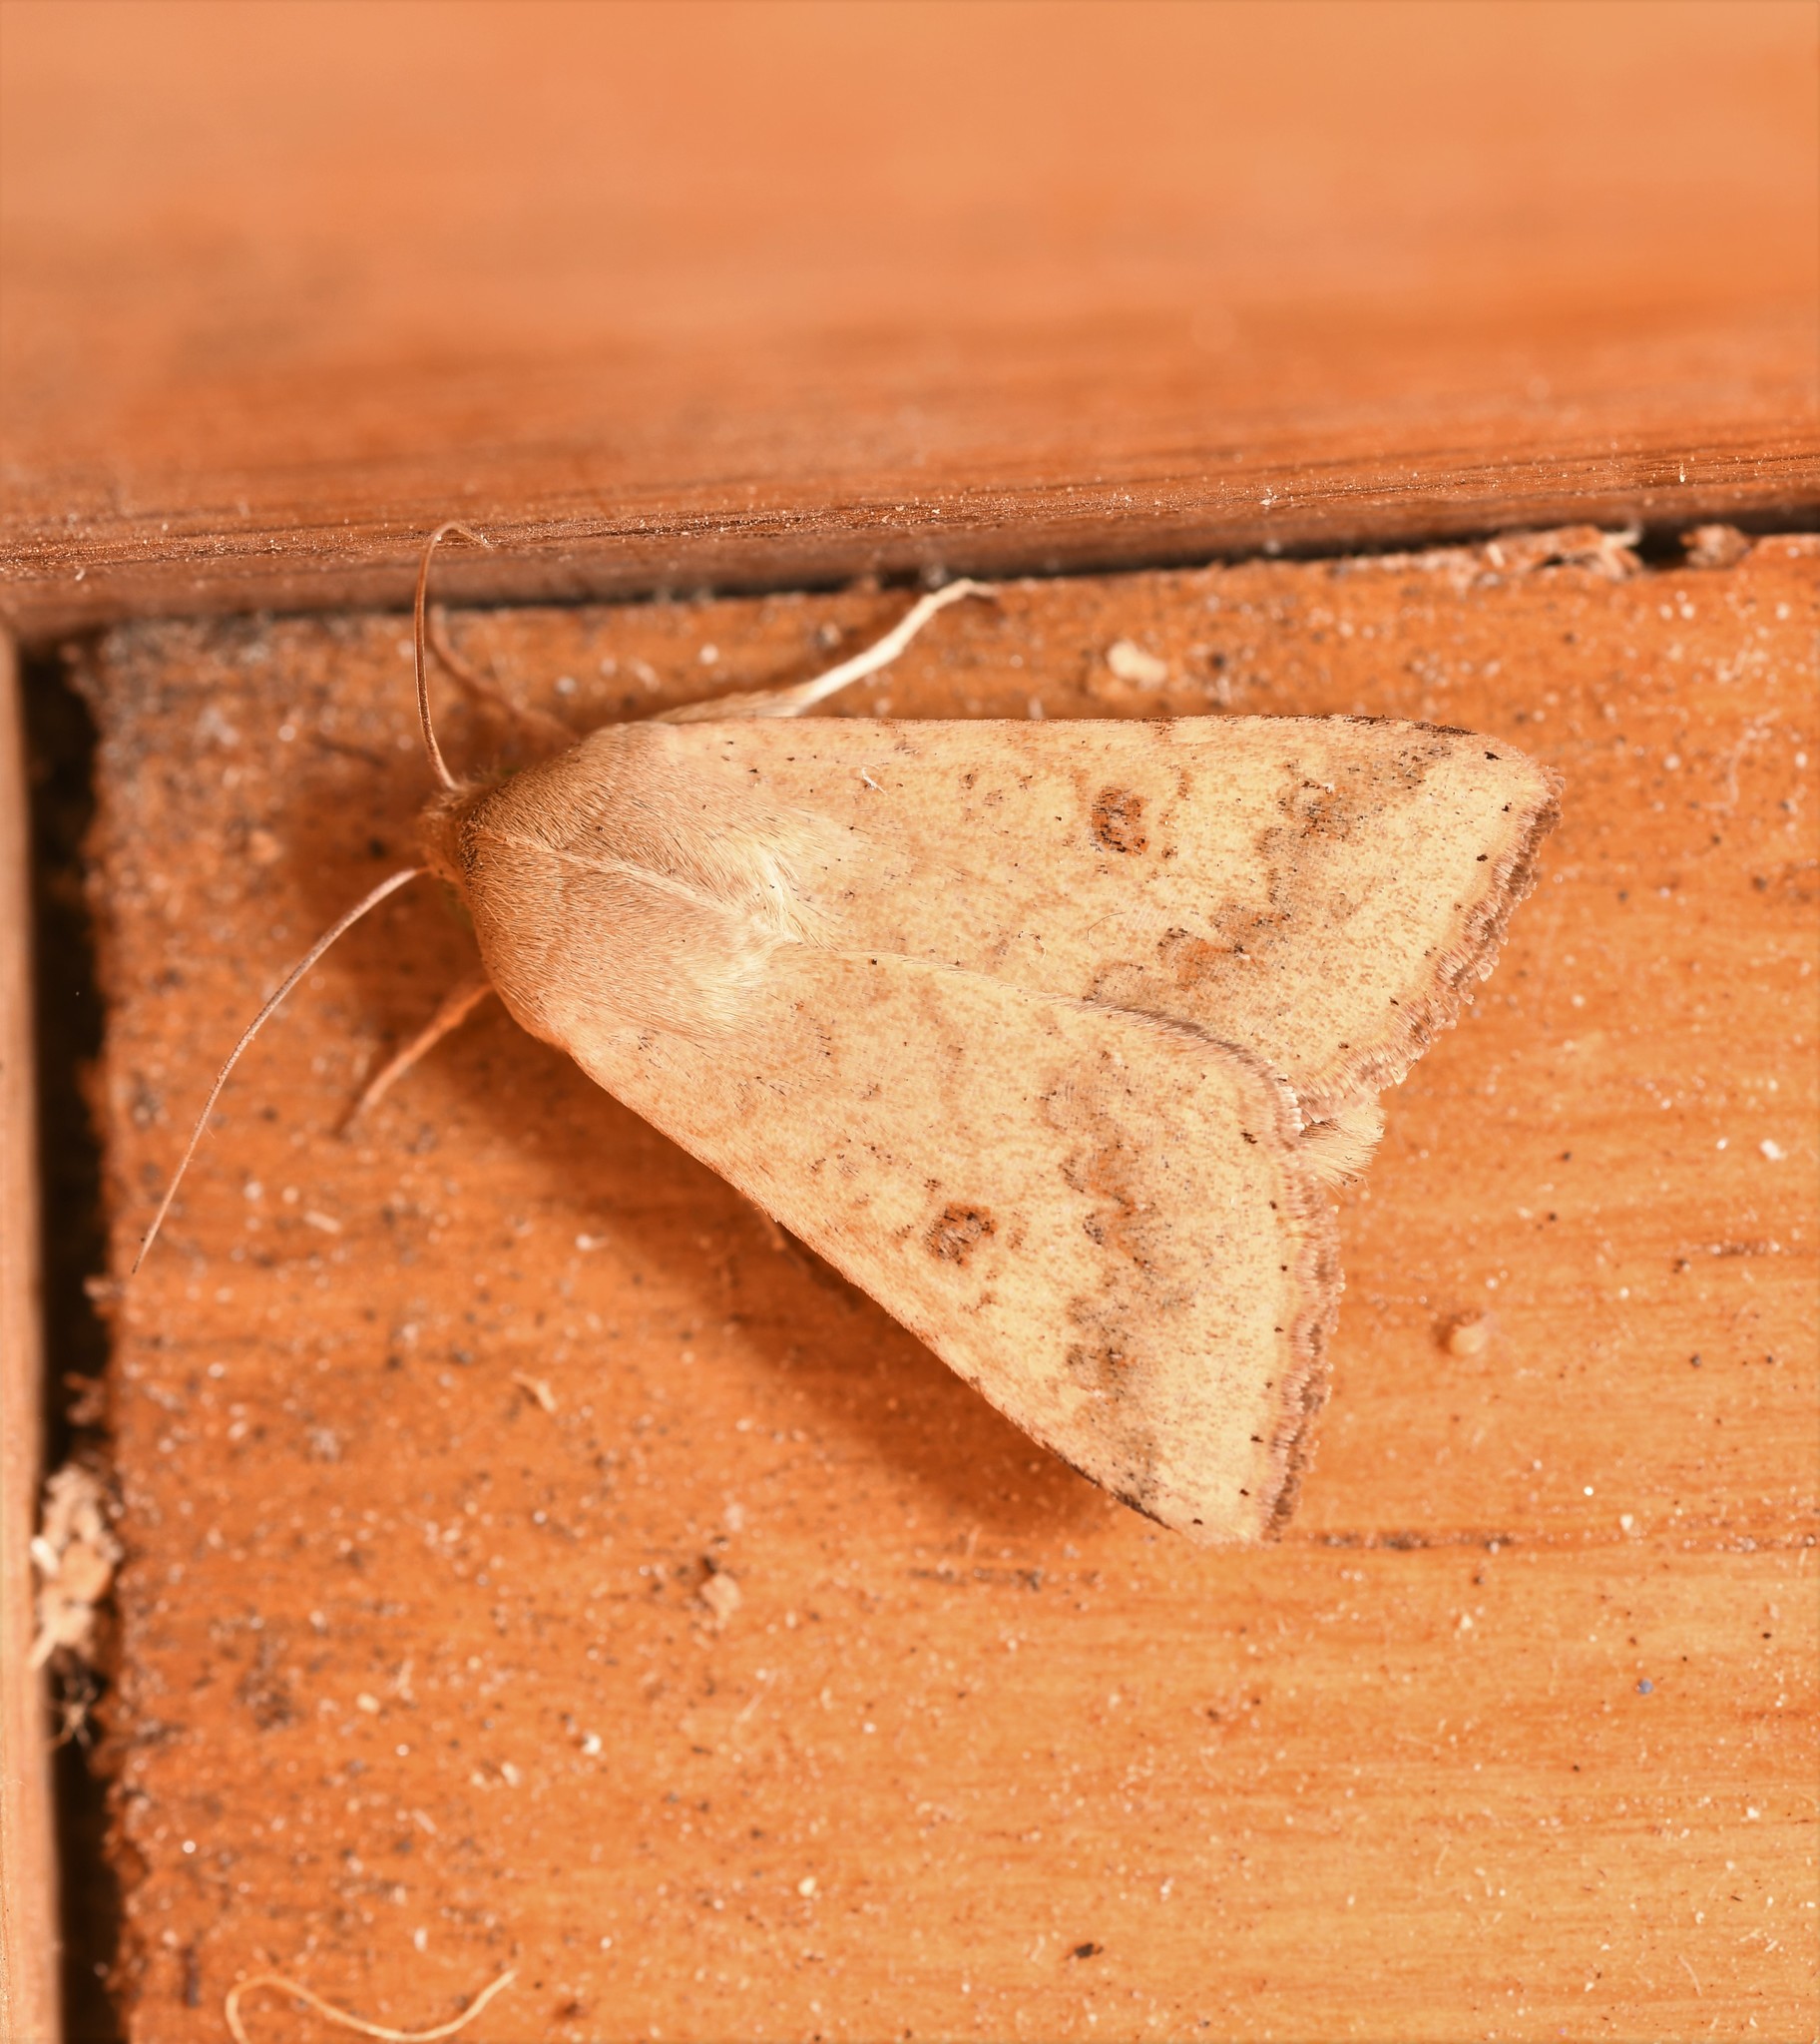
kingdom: Animalia
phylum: Arthropoda
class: Insecta
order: Lepidoptera
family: Noctuidae
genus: Helicoverpa
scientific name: Helicoverpa armigera
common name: Cotton bollworm
